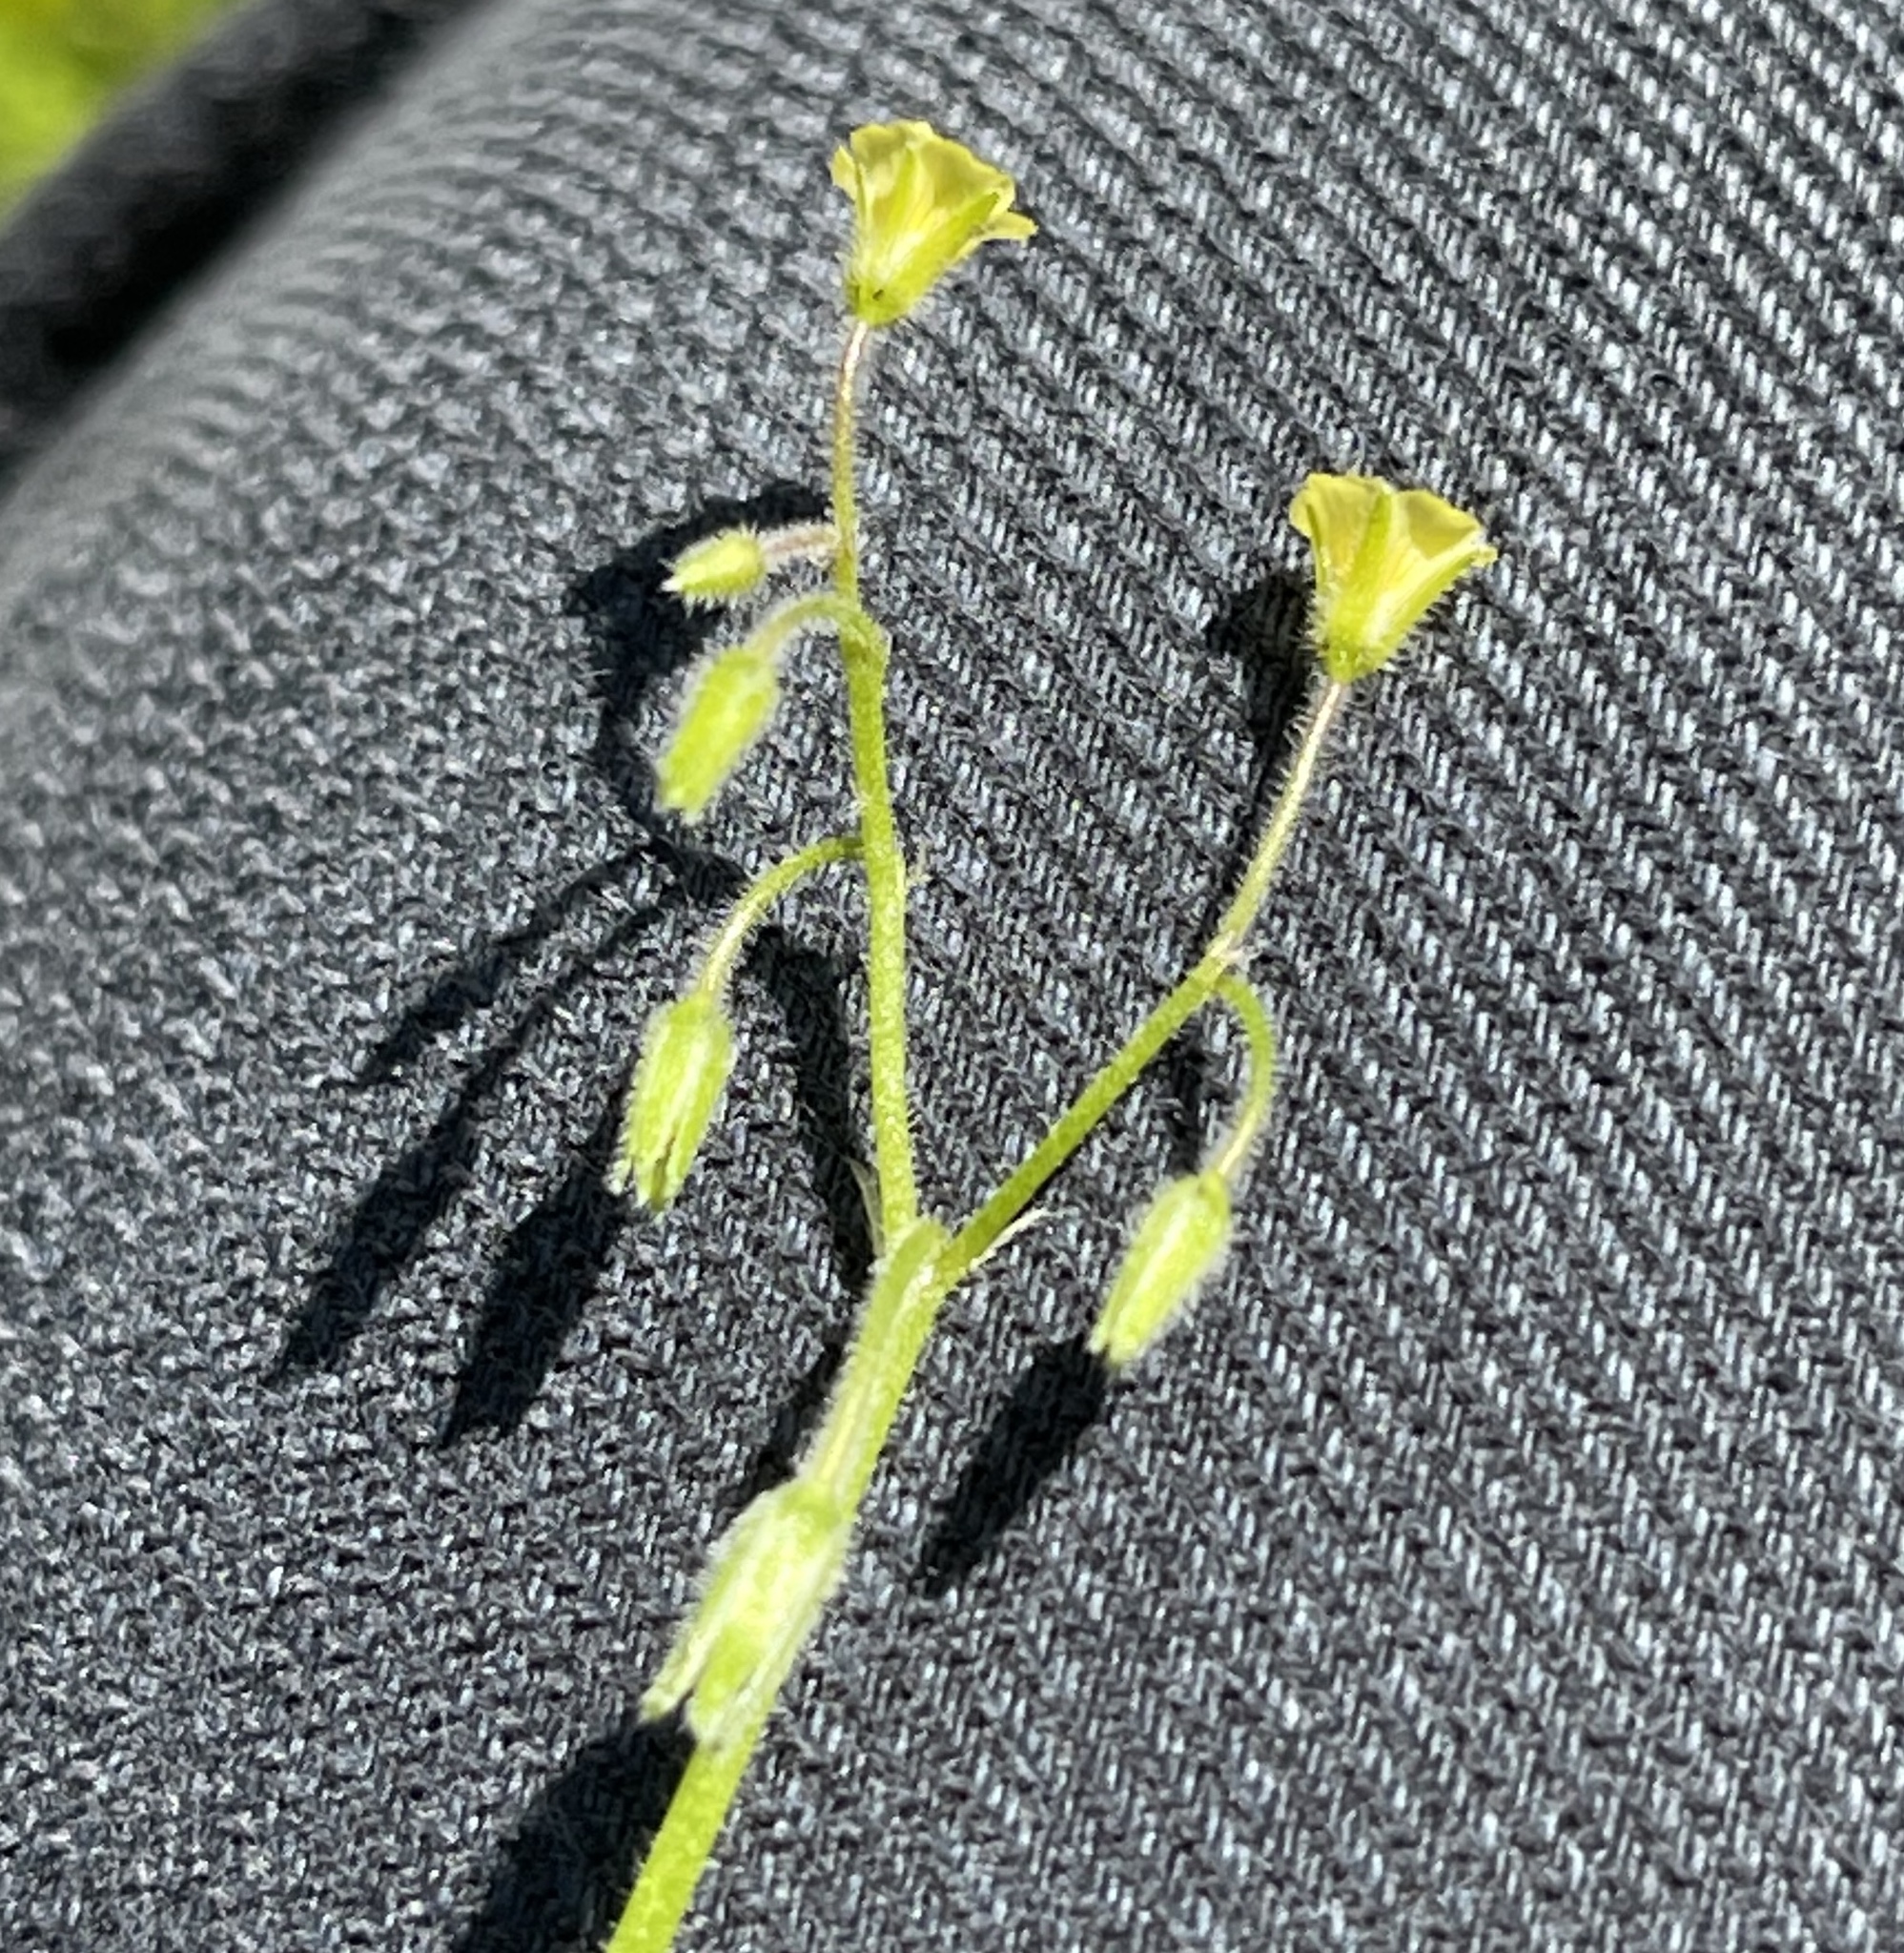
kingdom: Plantae
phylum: Tracheophyta
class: Magnoliopsida
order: Oxalidales
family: Oxalidaceae
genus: Oxalis
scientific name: Oxalis laxa
